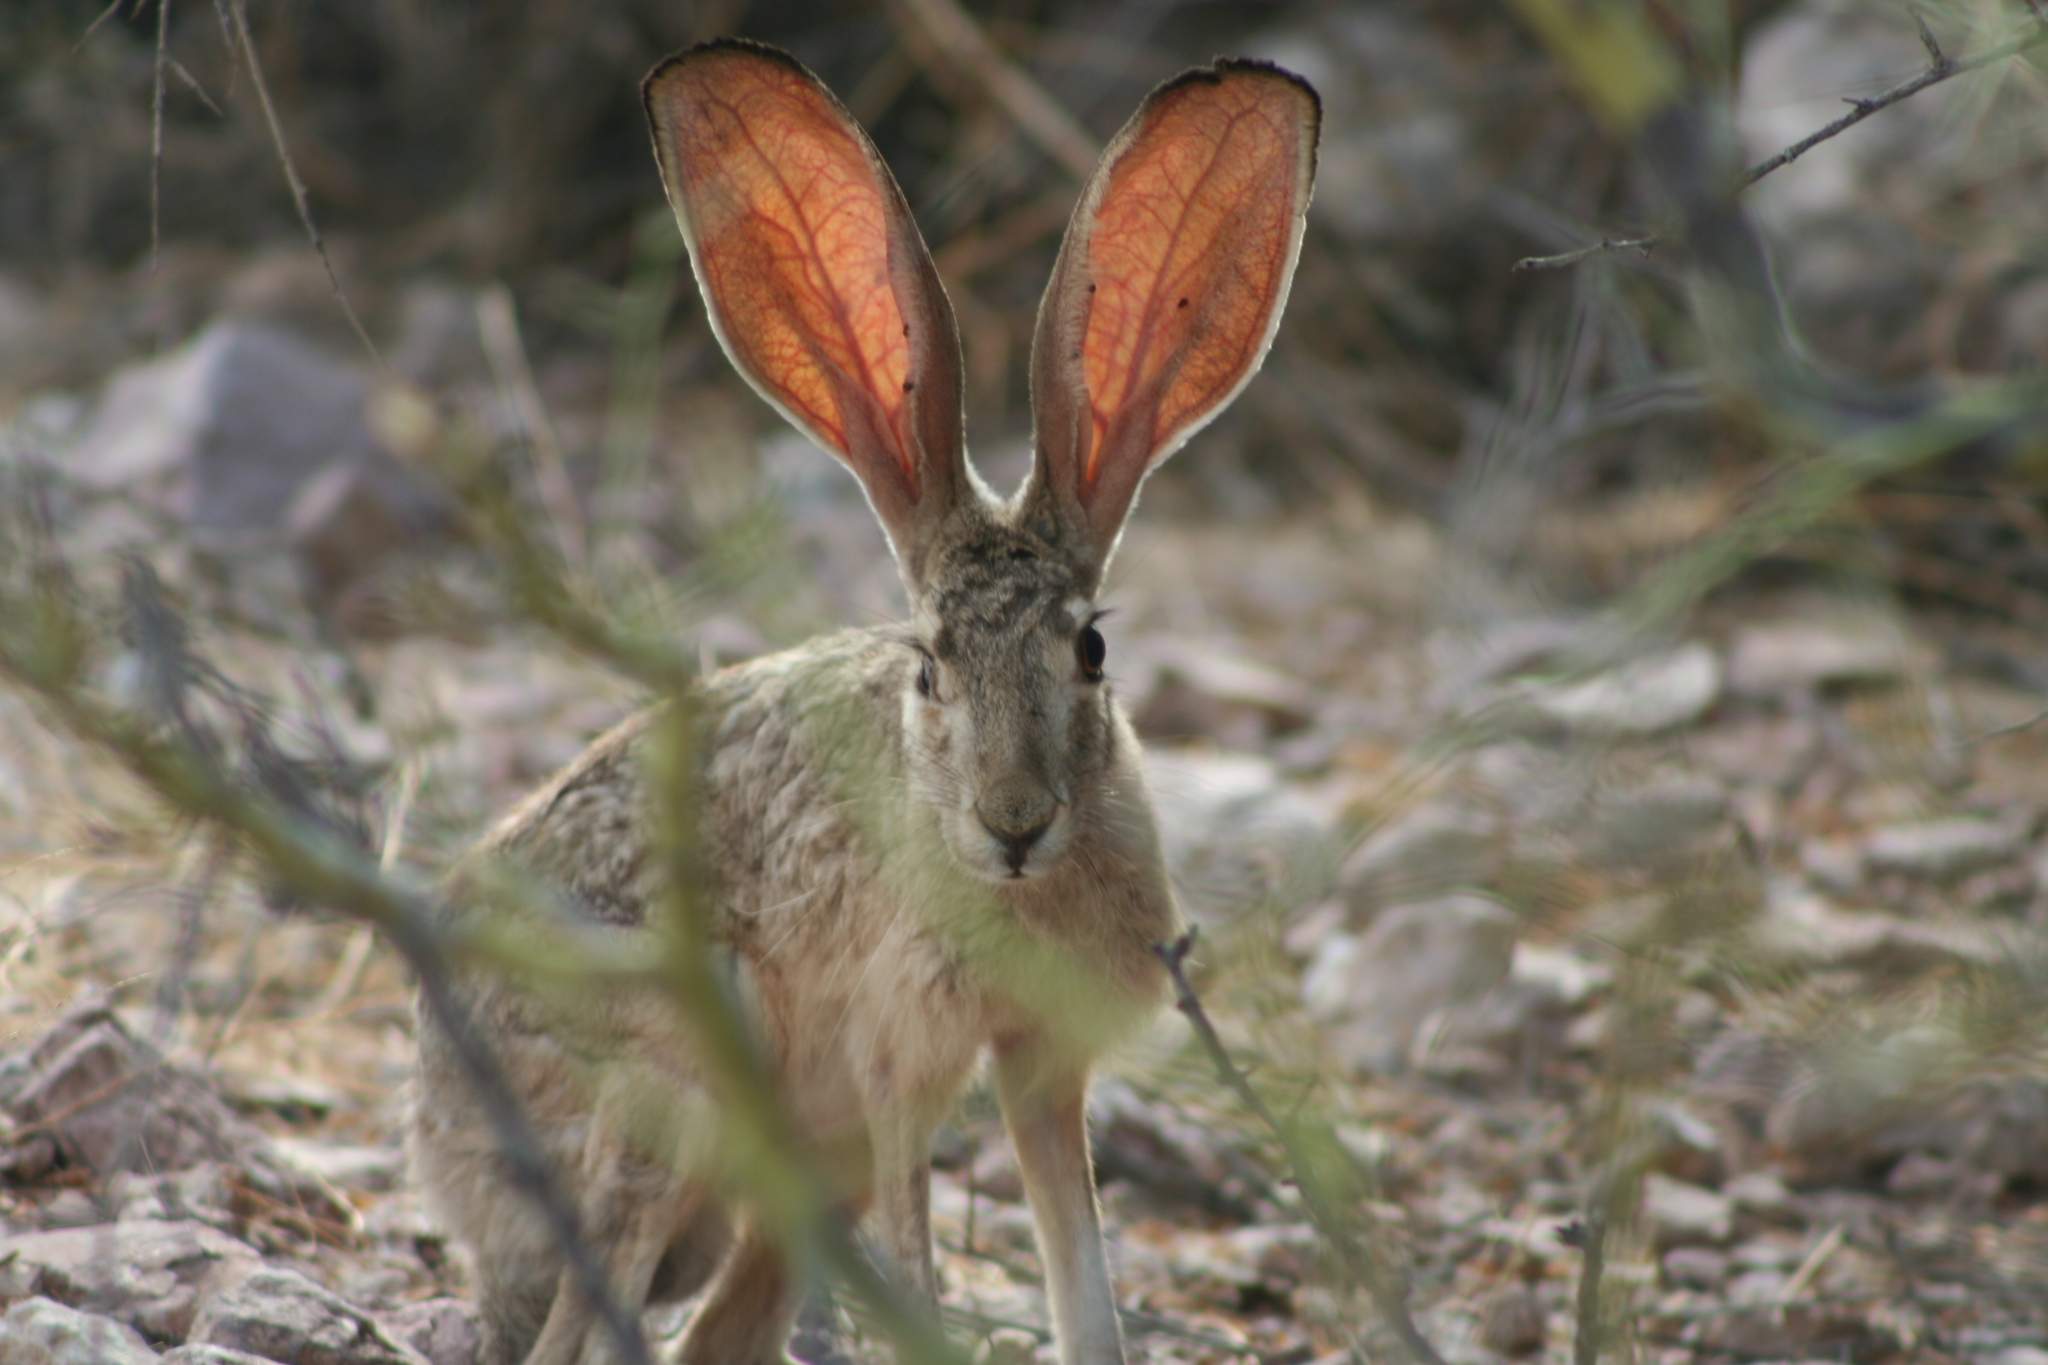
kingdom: Animalia
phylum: Chordata
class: Mammalia
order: Lagomorpha
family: Leporidae
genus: Lepus
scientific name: Lepus californicus
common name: Black-tailed jackrabbit
